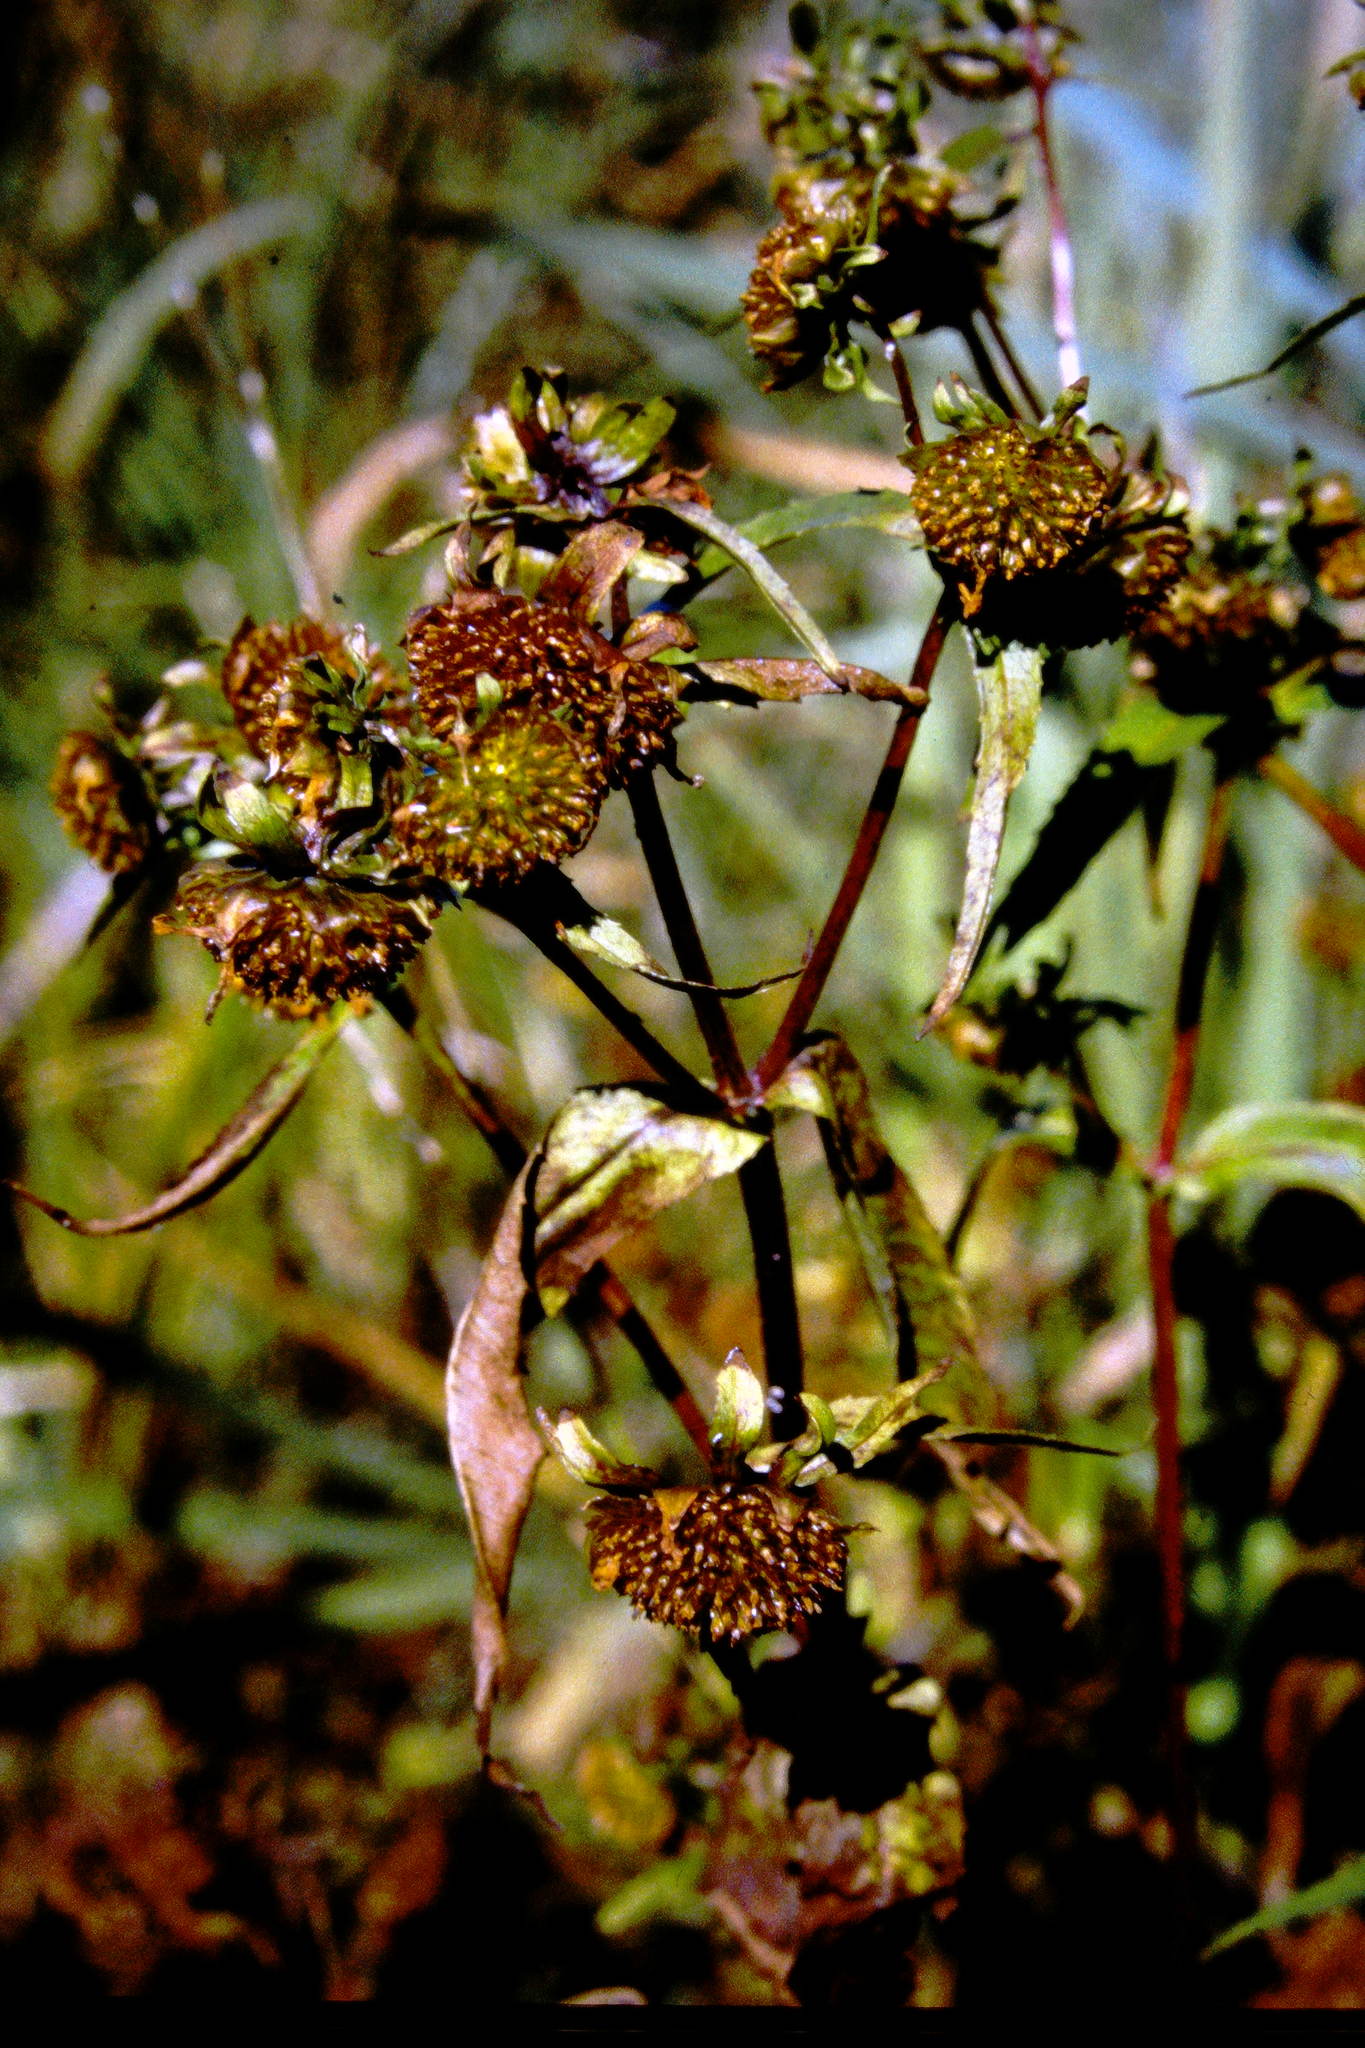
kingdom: Plantae
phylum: Tracheophyta
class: Magnoliopsida
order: Asterales
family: Asteraceae
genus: Bidens
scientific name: Bidens cernua
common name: Nodding bur-marigold
